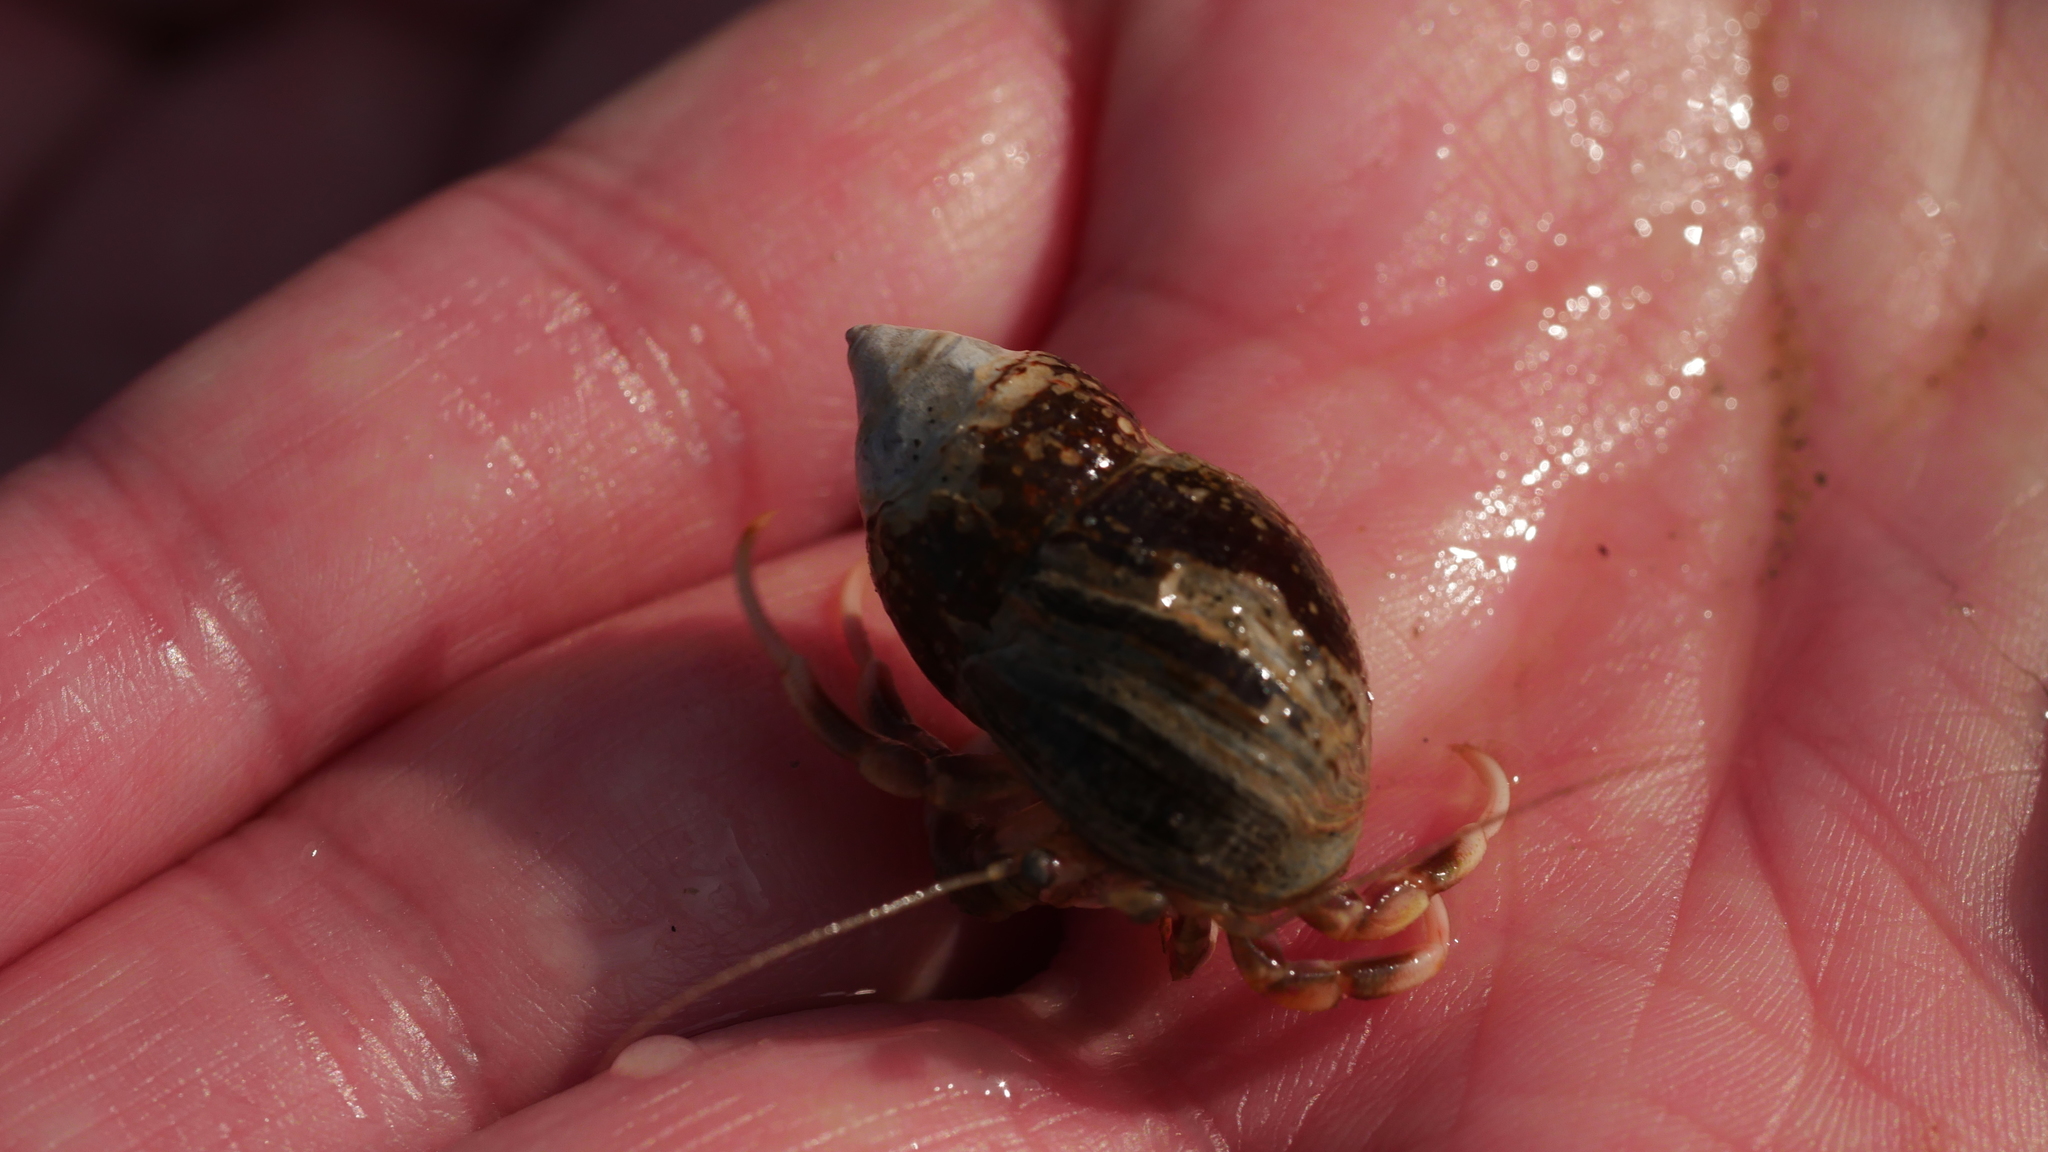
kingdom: Animalia
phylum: Arthropoda
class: Malacostraca
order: Decapoda
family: Paguridae
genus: Pagurus
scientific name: Pagurus longicarpus
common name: Long-armed hermit crab
